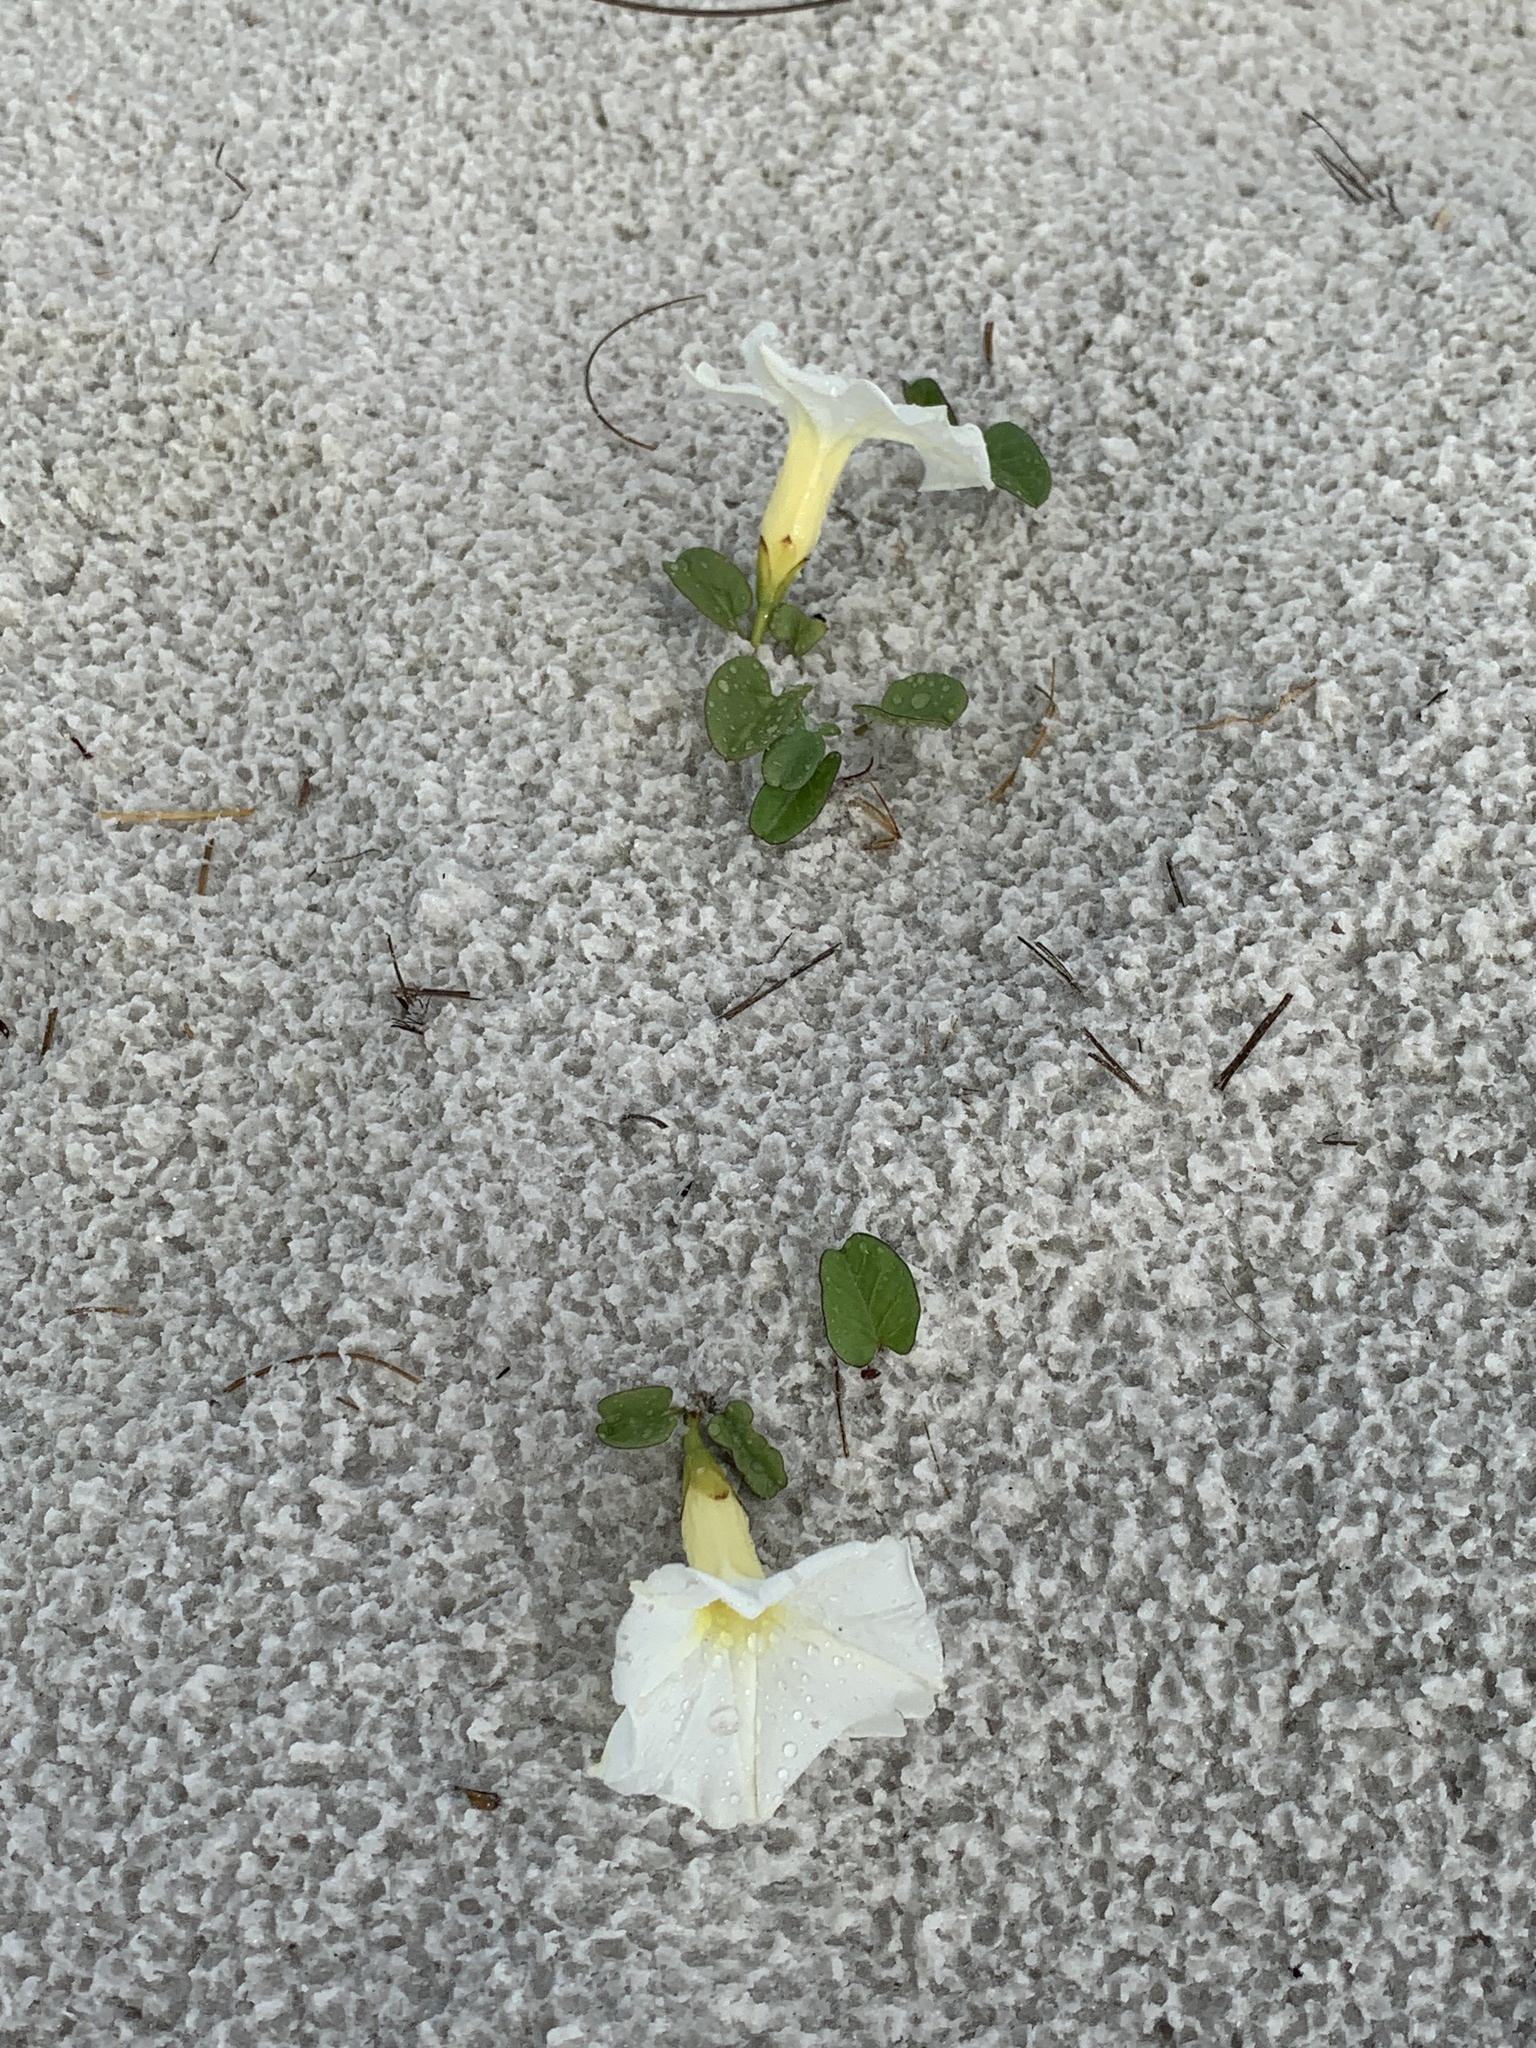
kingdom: Plantae
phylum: Tracheophyta
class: Magnoliopsida
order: Solanales
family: Convolvulaceae
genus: Ipomoea
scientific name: Ipomoea imperati
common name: Fiddle-leaf morning-glory
